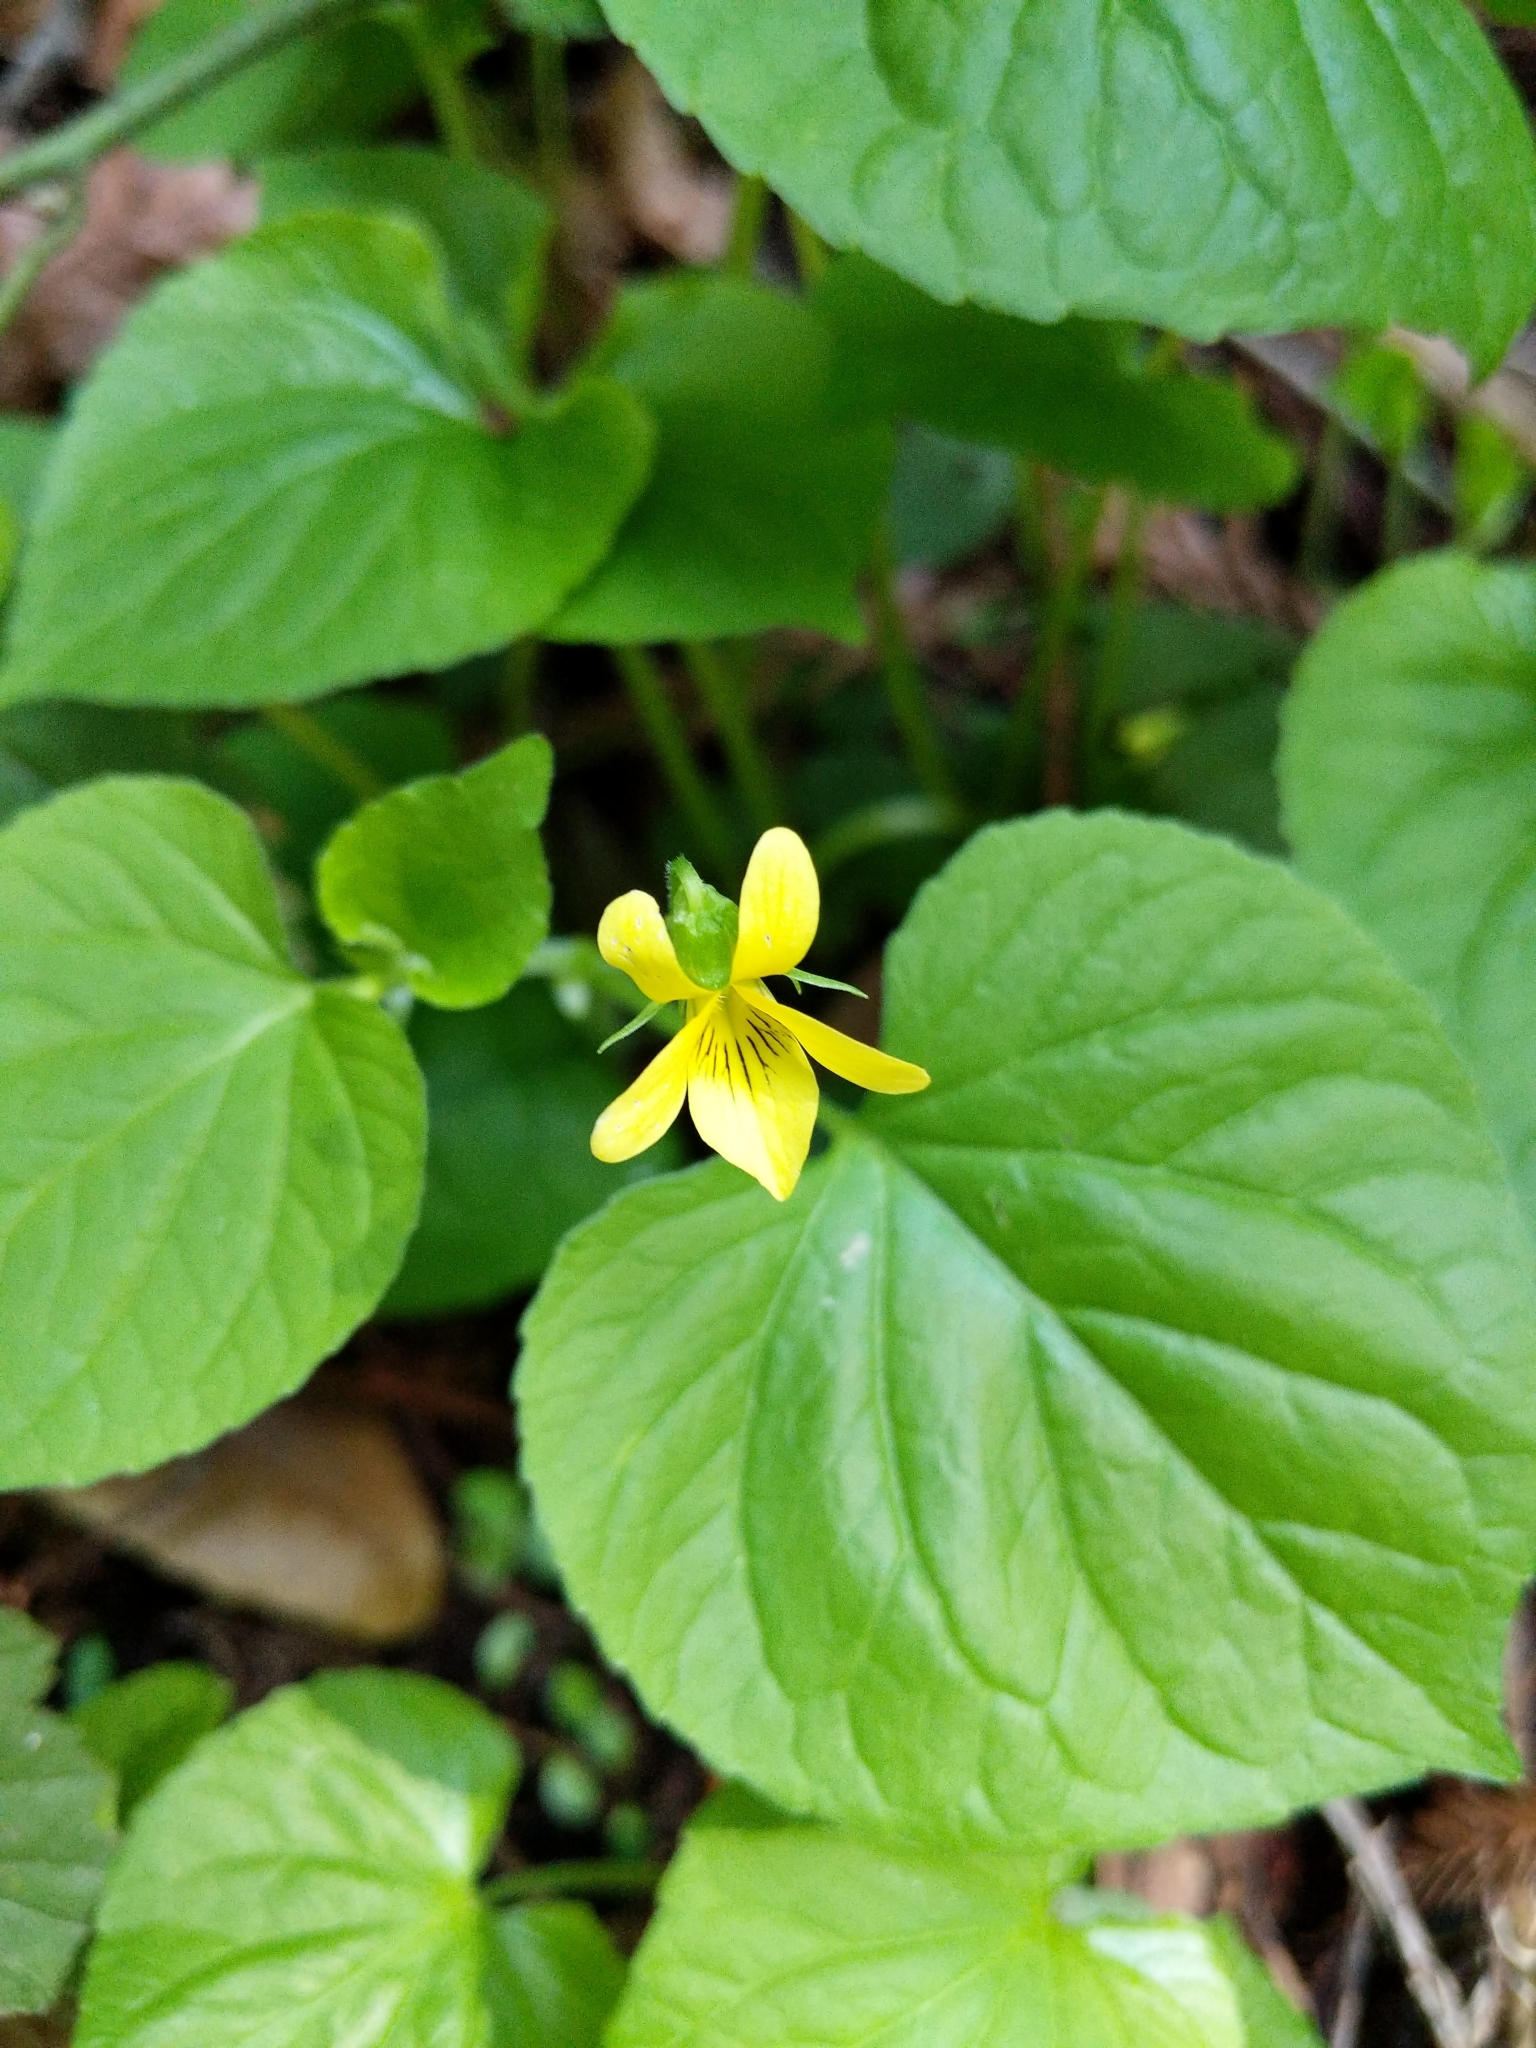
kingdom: Plantae
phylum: Tracheophyta
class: Magnoliopsida
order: Malpighiales
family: Violaceae
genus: Viola
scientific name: Viola glabella
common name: Stream violet
